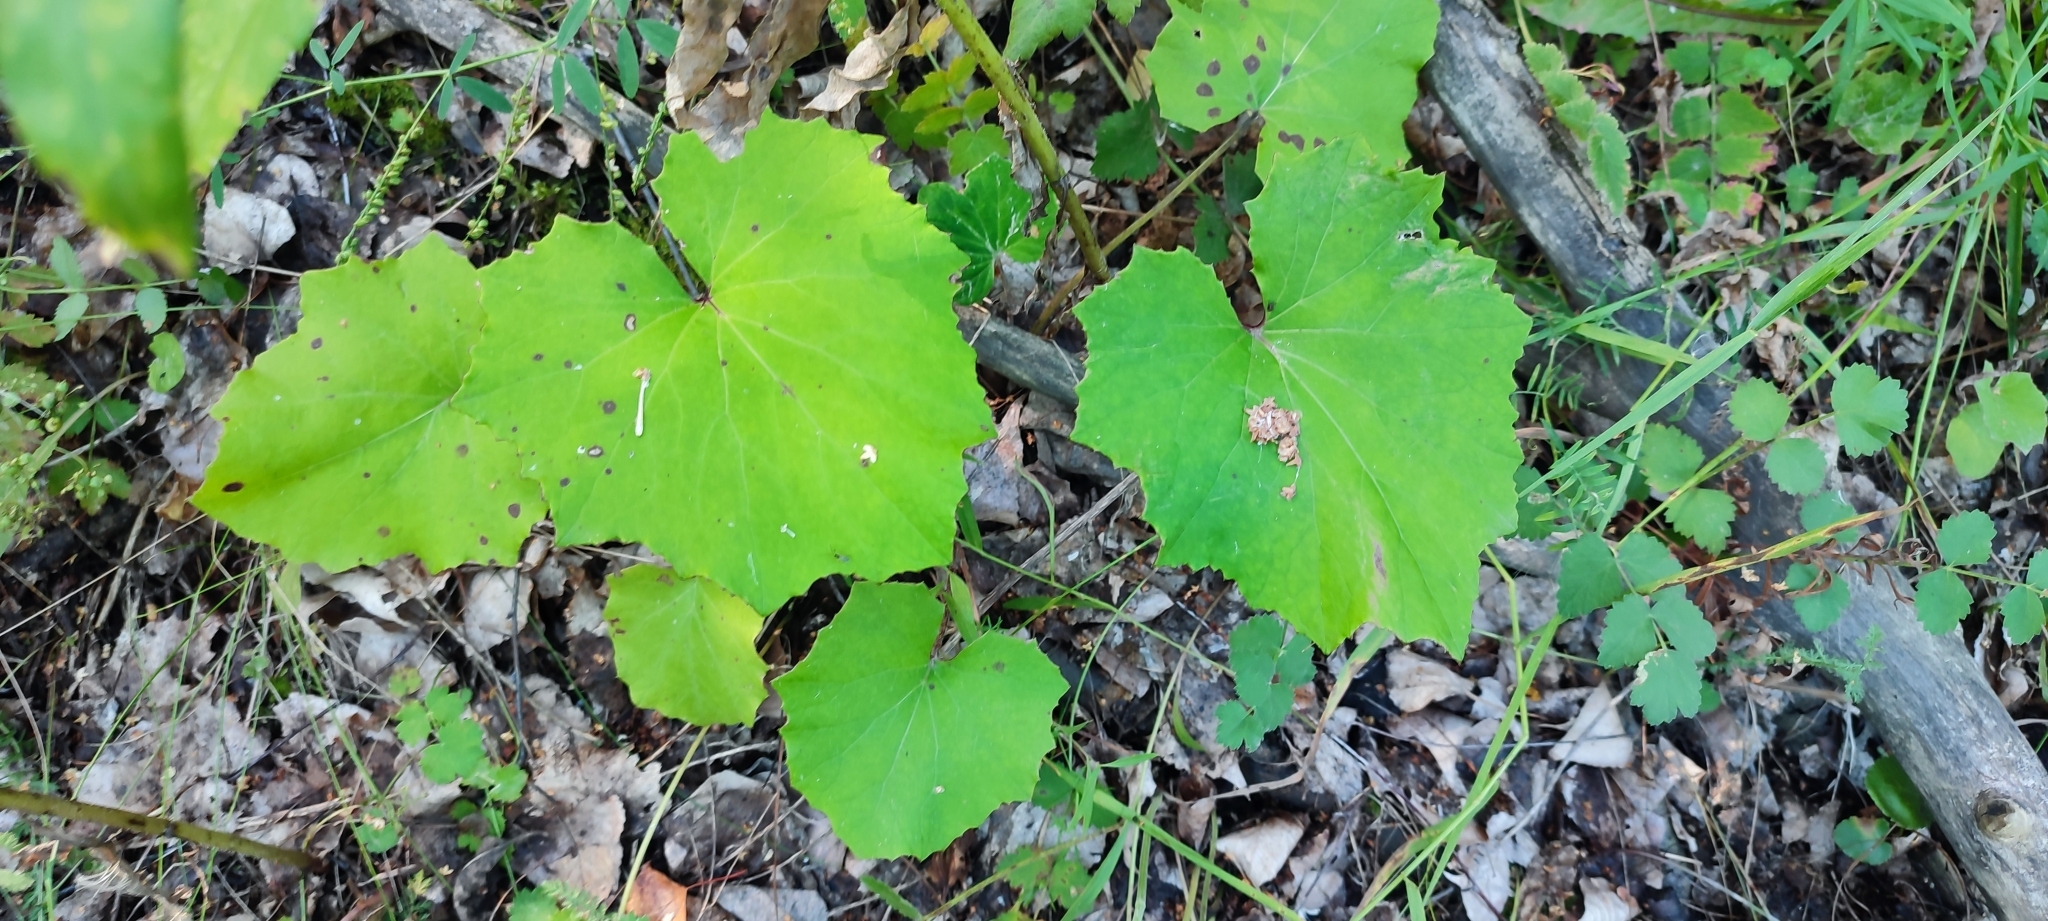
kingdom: Plantae
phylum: Tracheophyta
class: Magnoliopsida
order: Asterales
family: Asteraceae
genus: Tussilago
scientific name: Tussilago farfara
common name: Coltsfoot
